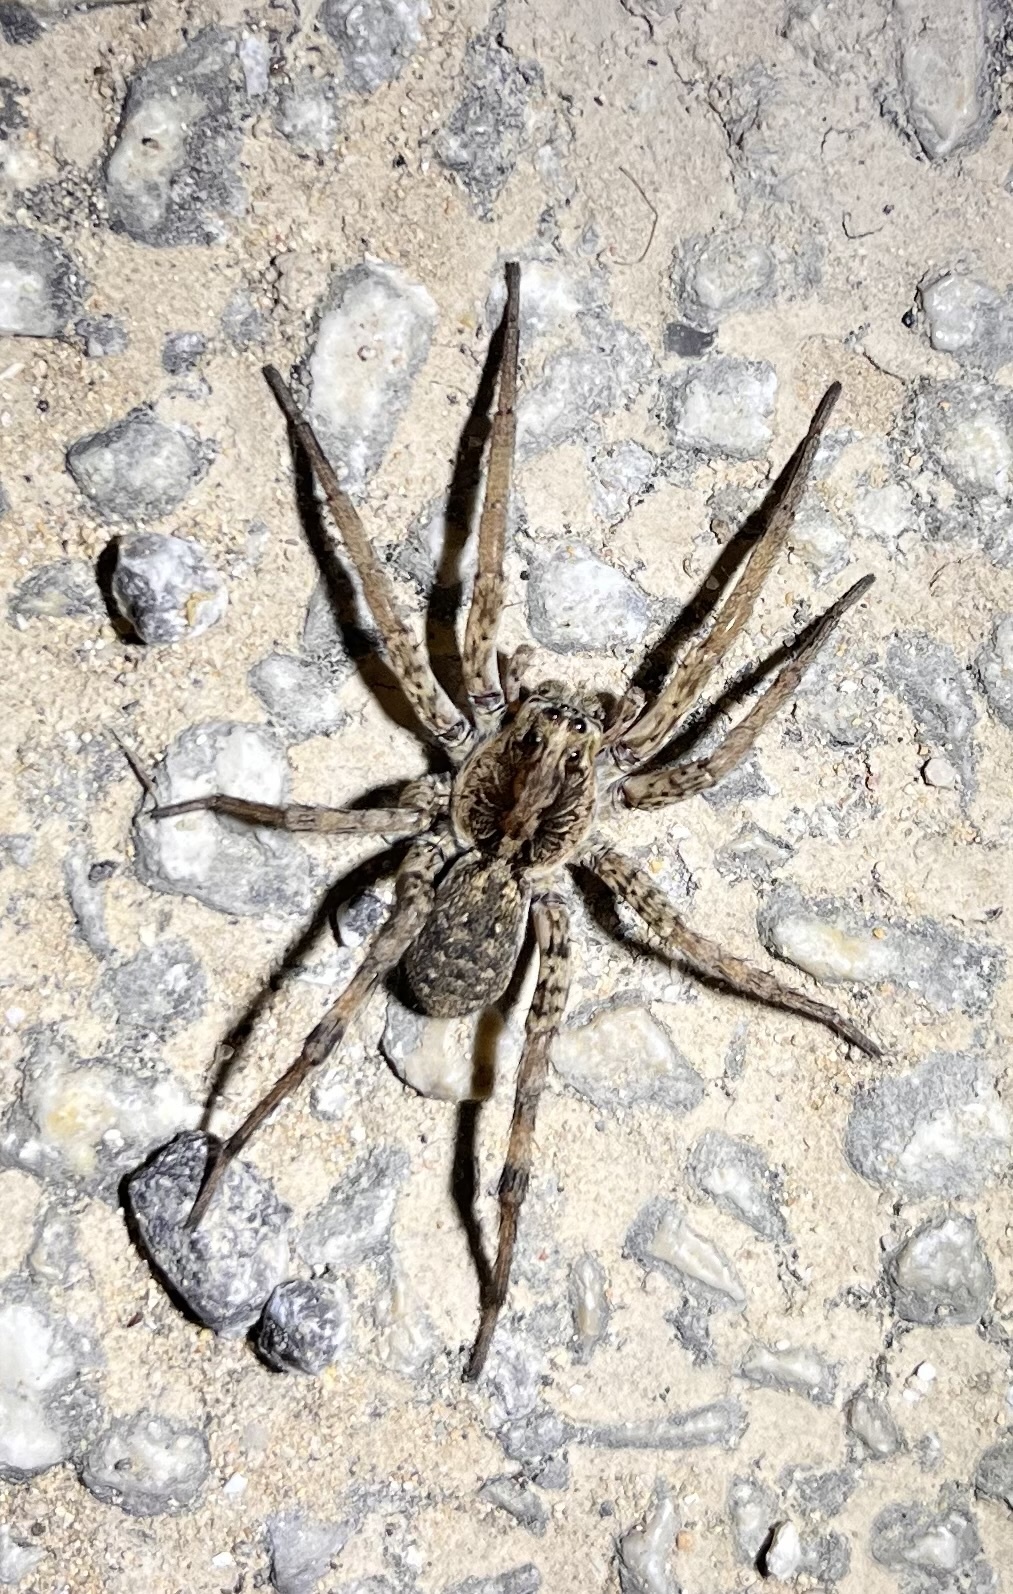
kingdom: Animalia
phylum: Arthropoda
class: Arachnida
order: Araneae
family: Lycosidae
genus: Hogna
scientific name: Hogna antelucana
